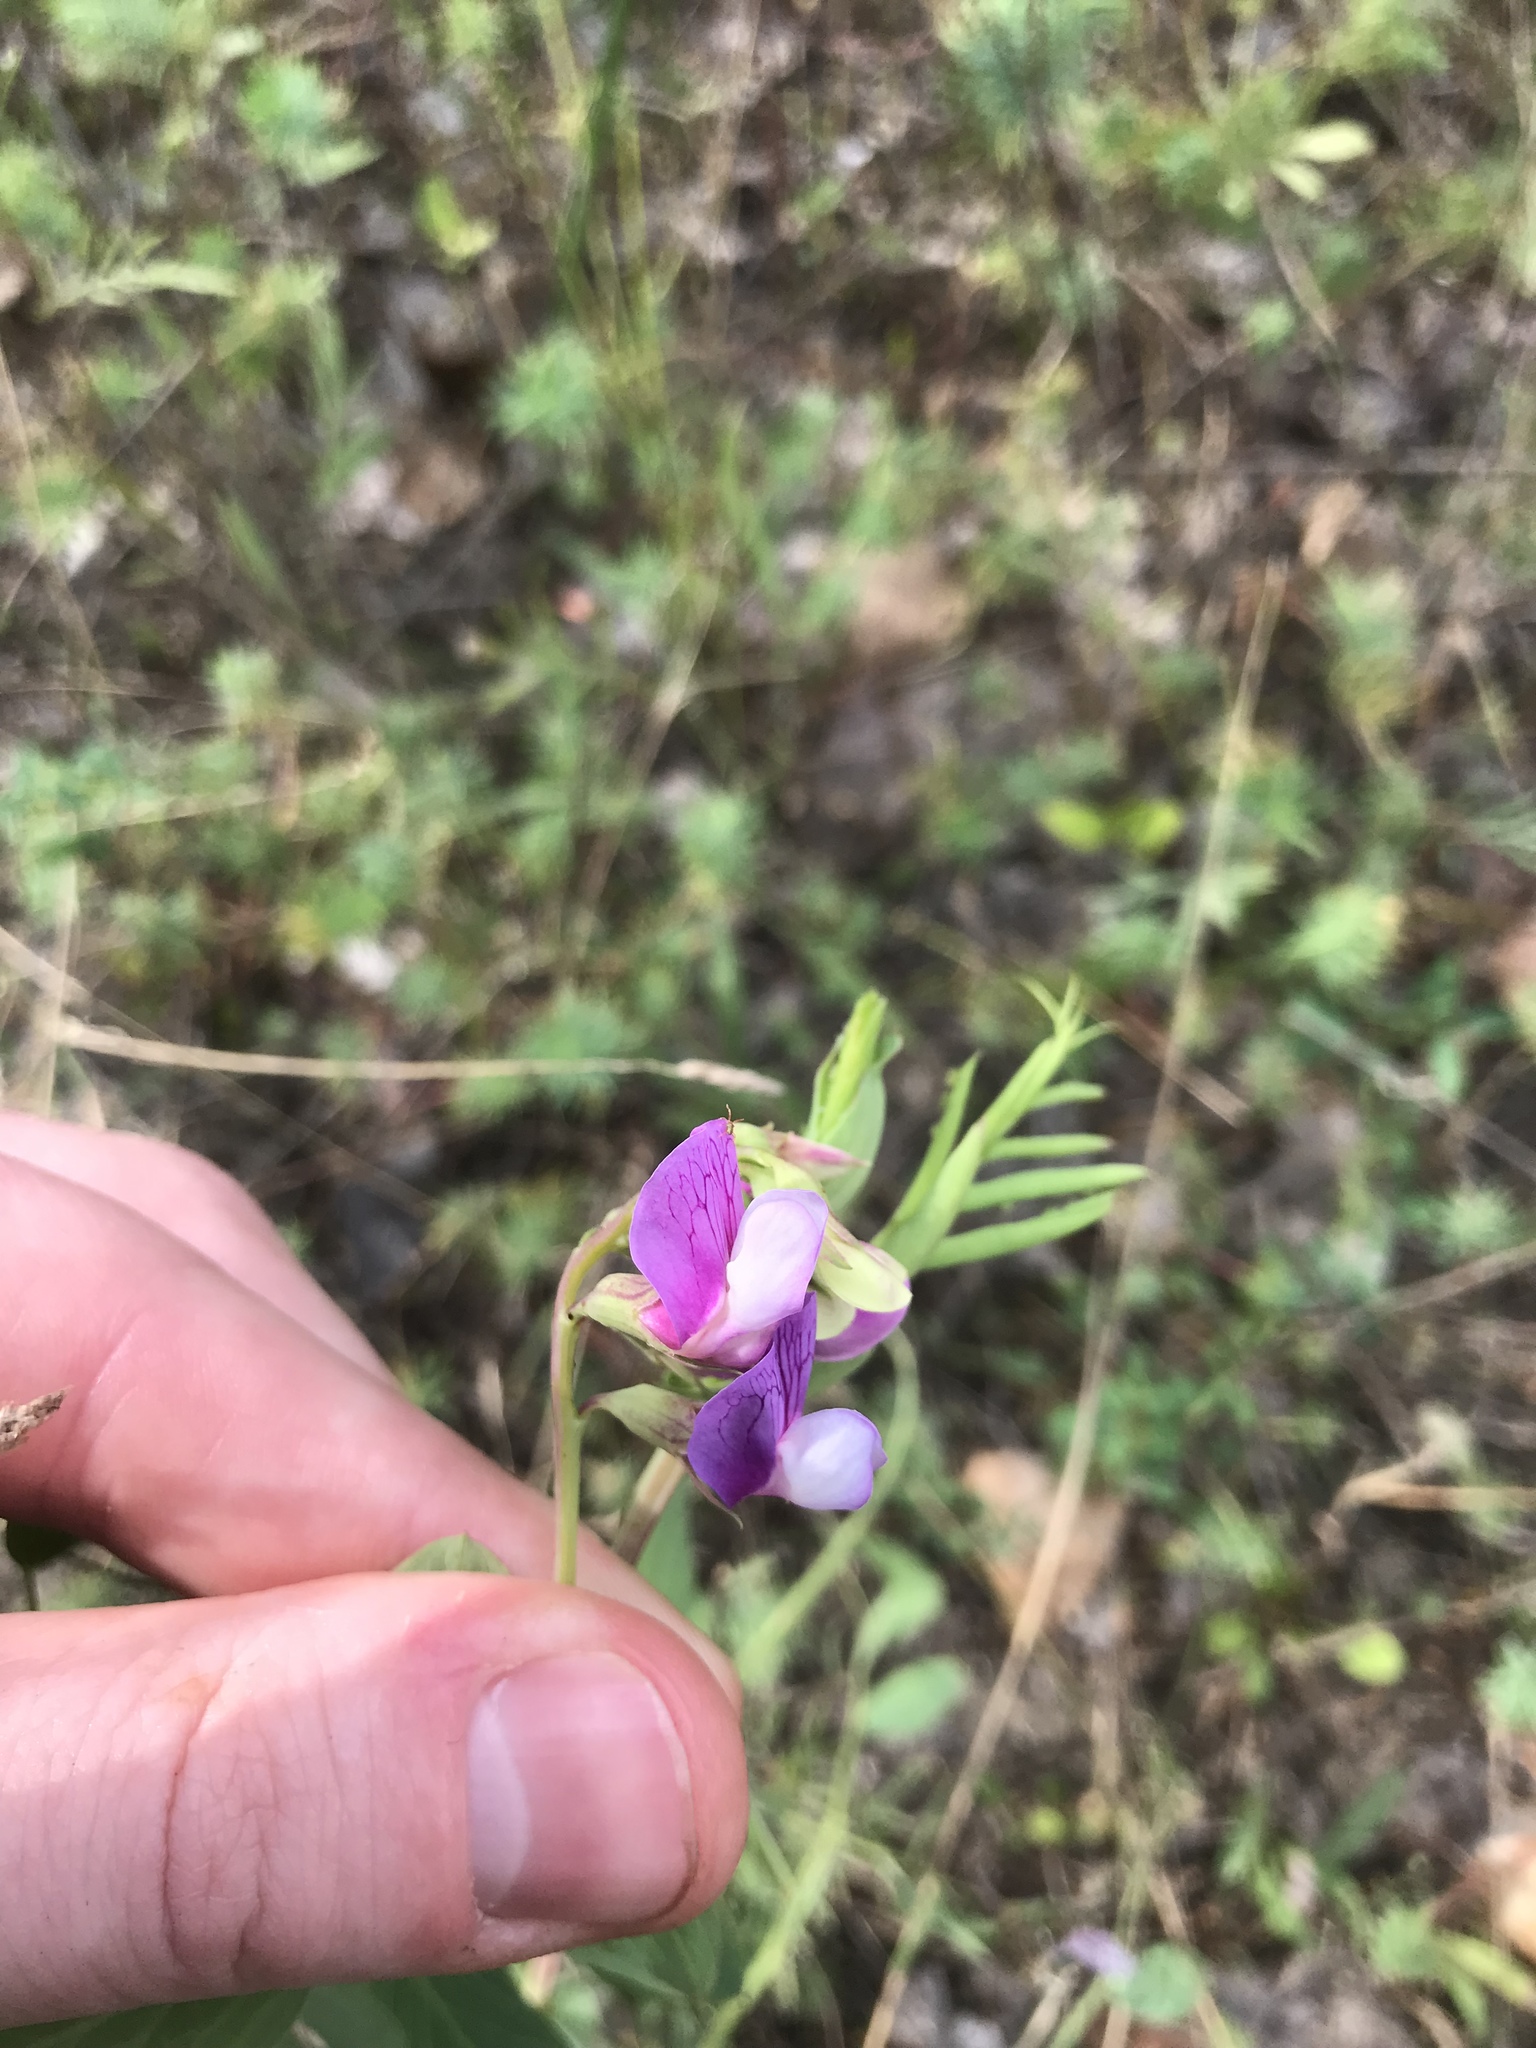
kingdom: Plantae
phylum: Tracheophyta
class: Magnoliopsida
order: Fabales
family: Fabaceae
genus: Lathyrus
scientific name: Lathyrus japonicus
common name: Sea pea
